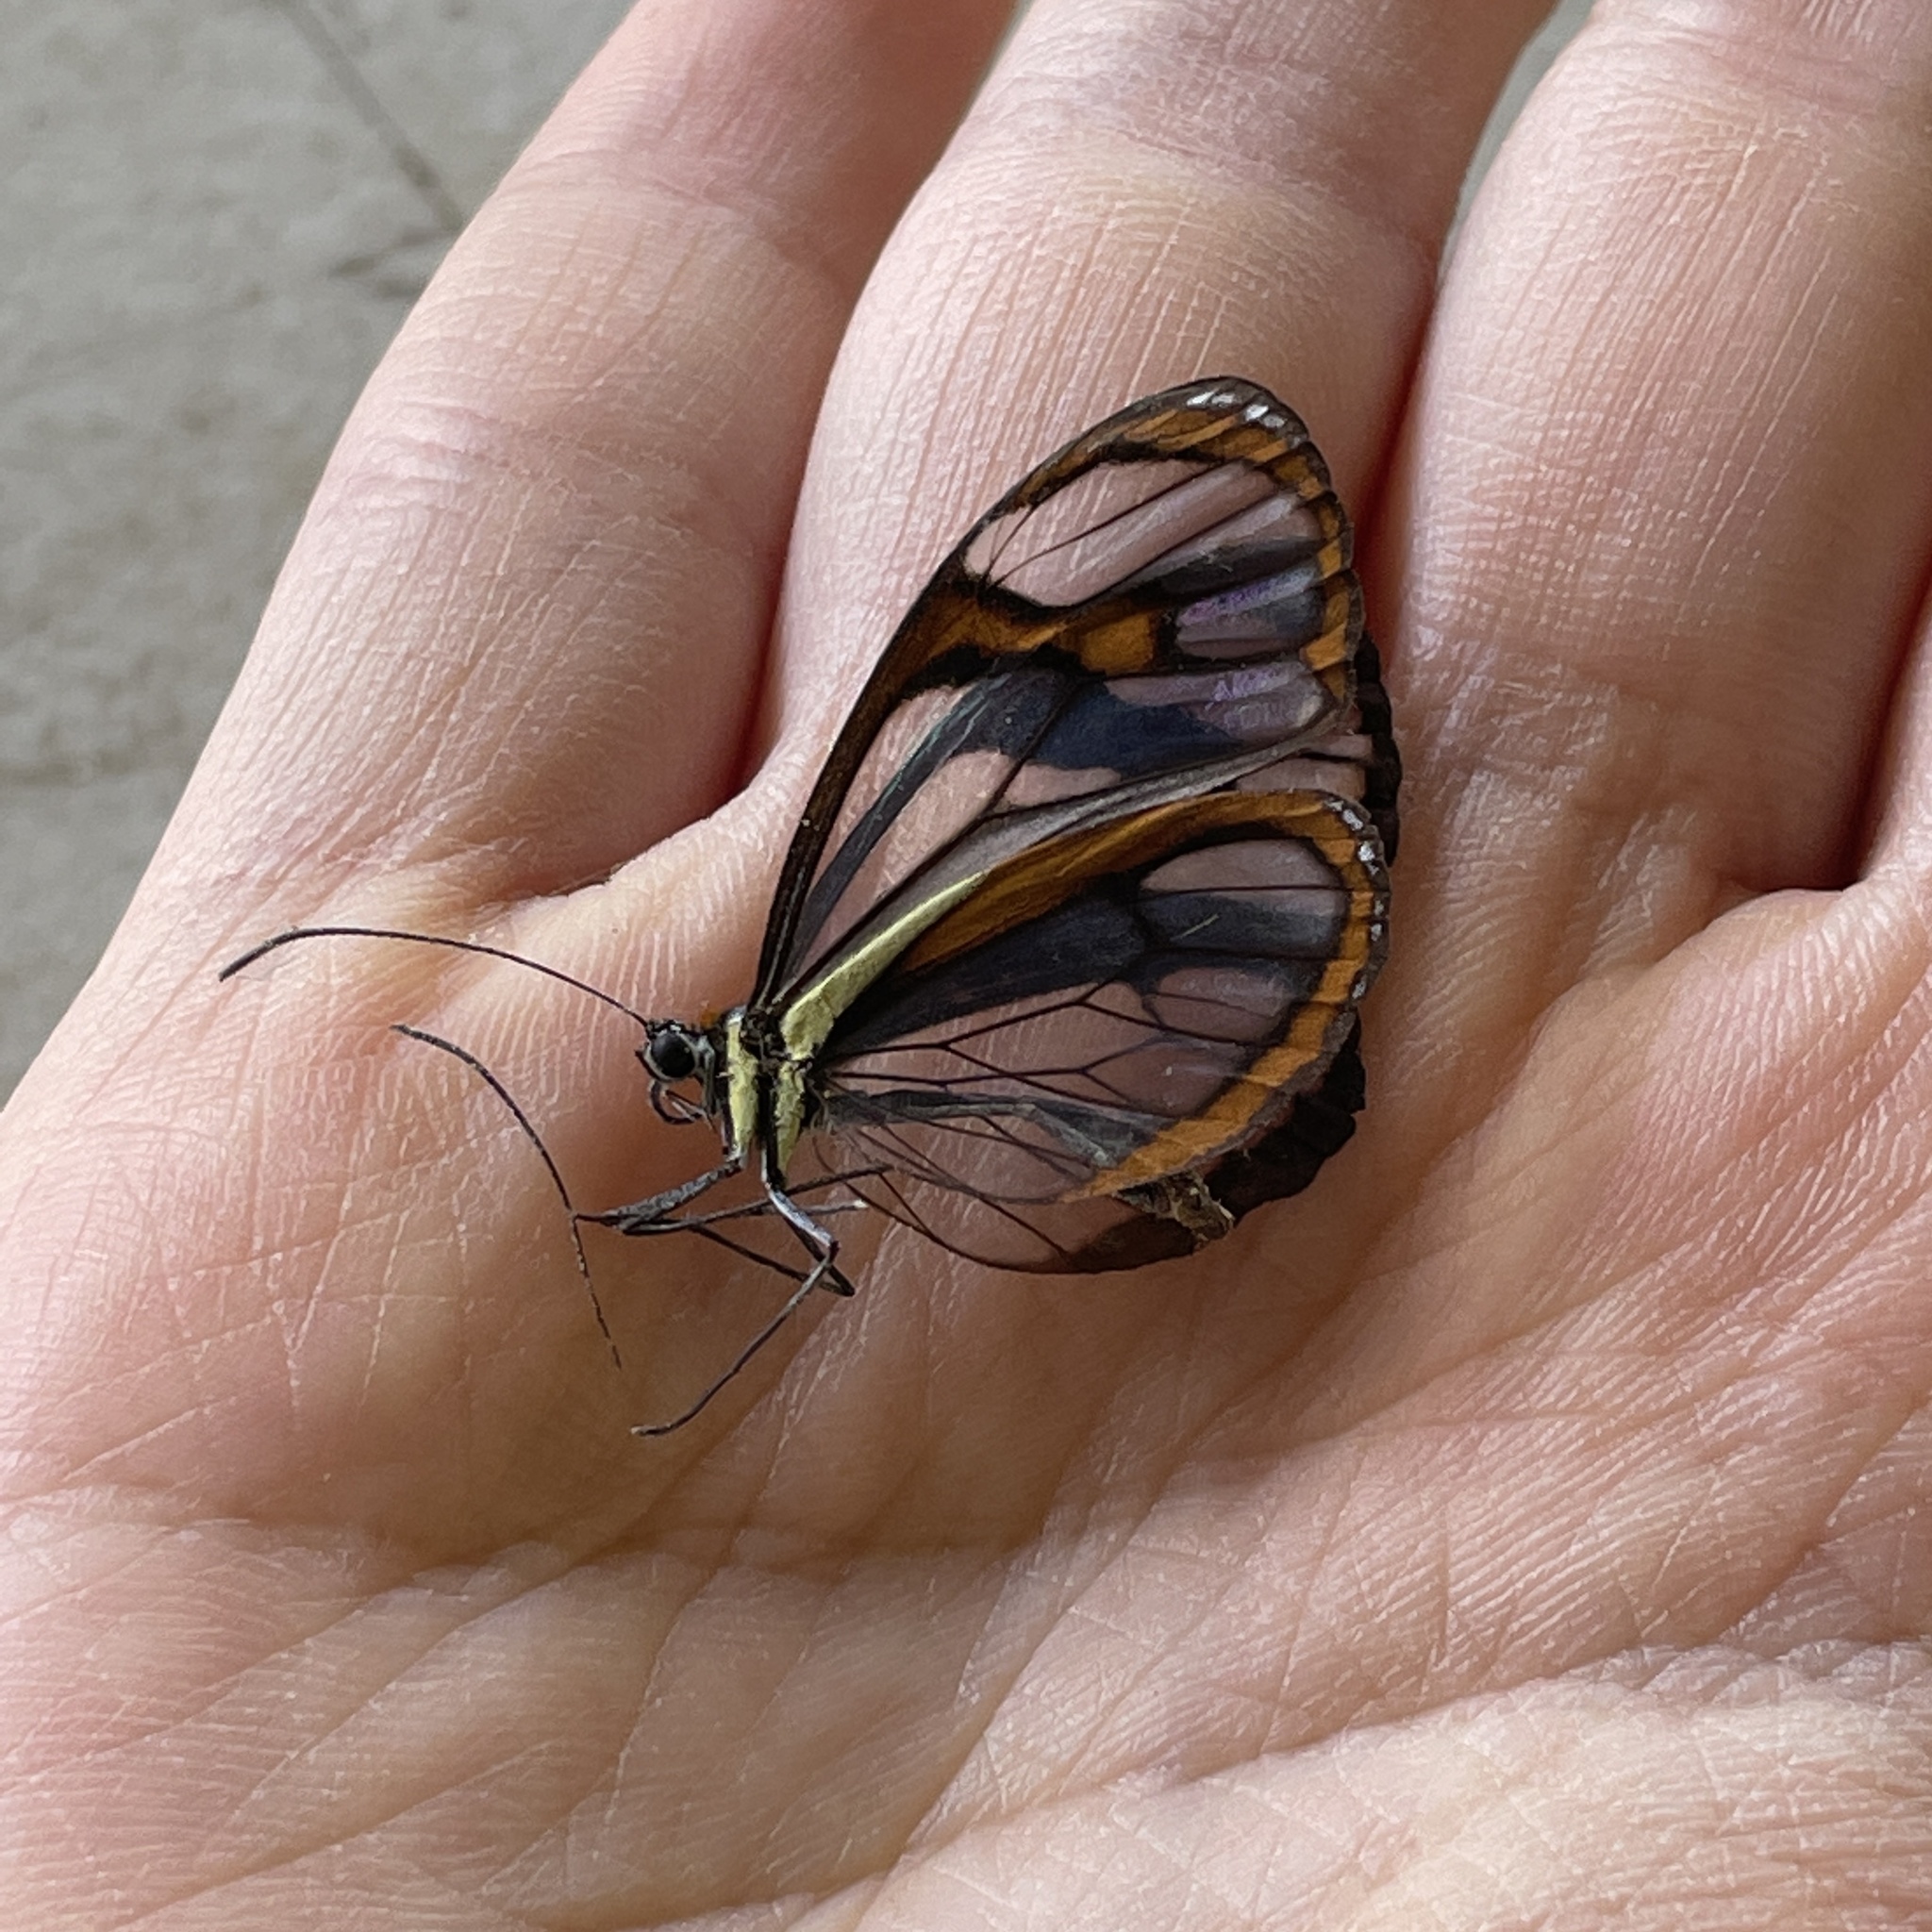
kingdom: Animalia
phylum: Arthropoda
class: Insecta
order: Lepidoptera
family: Nymphalidae
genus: Ithomia
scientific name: Ithomia agnosia
